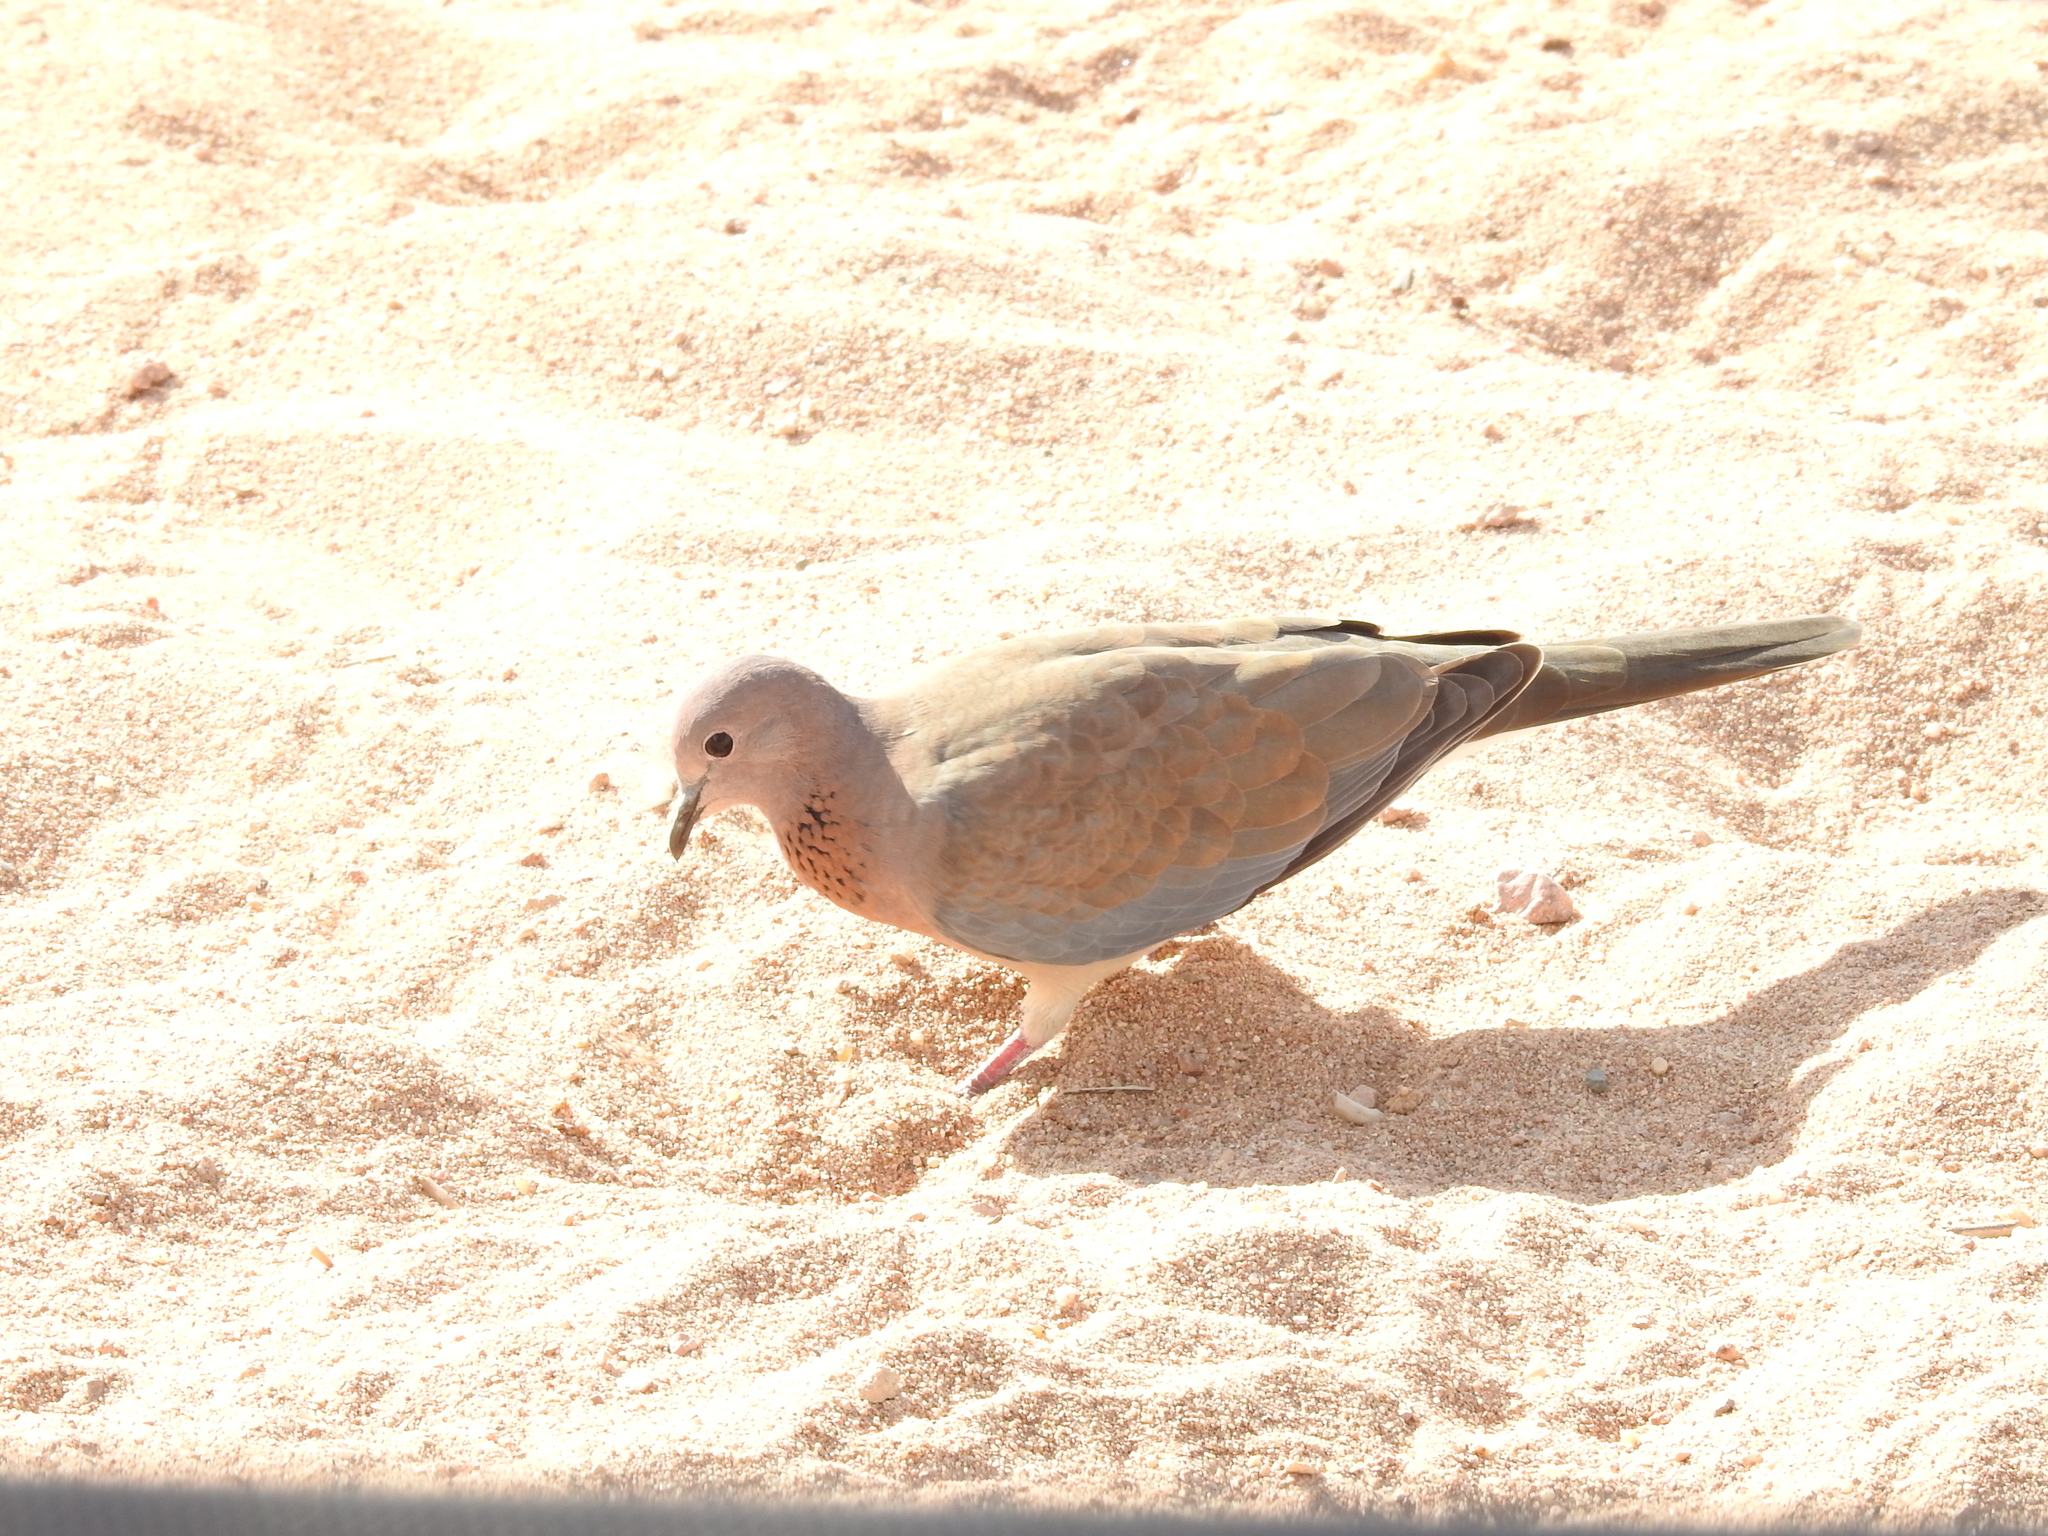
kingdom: Animalia
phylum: Chordata
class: Aves
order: Columbiformes
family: Columbidae
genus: Spilopelia
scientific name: Spilopelia senegalensis
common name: Laughing dove
